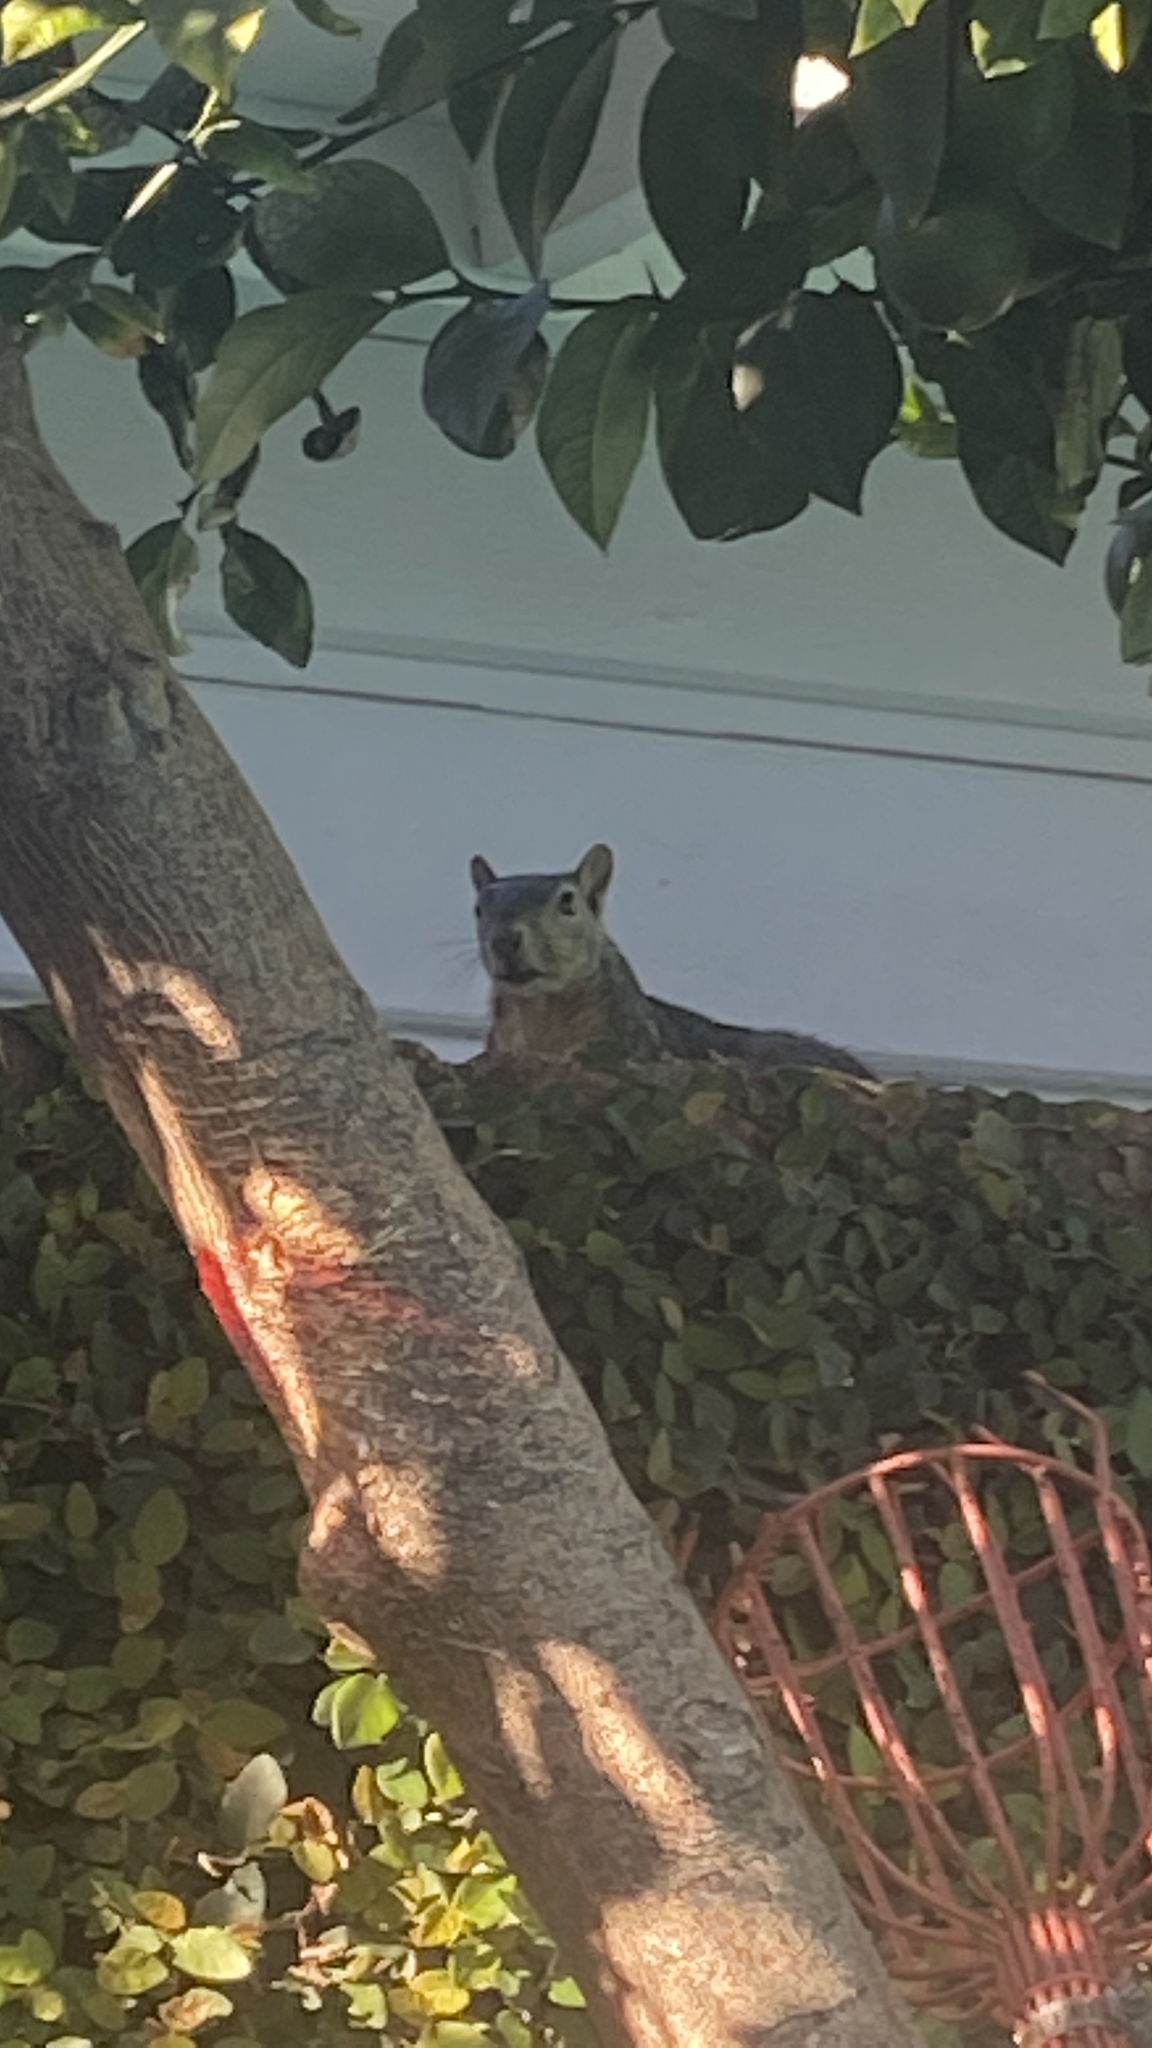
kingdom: Animalia
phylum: Chordata
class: Mammalia
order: Rodentia
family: Sciuridae
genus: Sciurus
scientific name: Sciurus niger
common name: Fox squirrel
